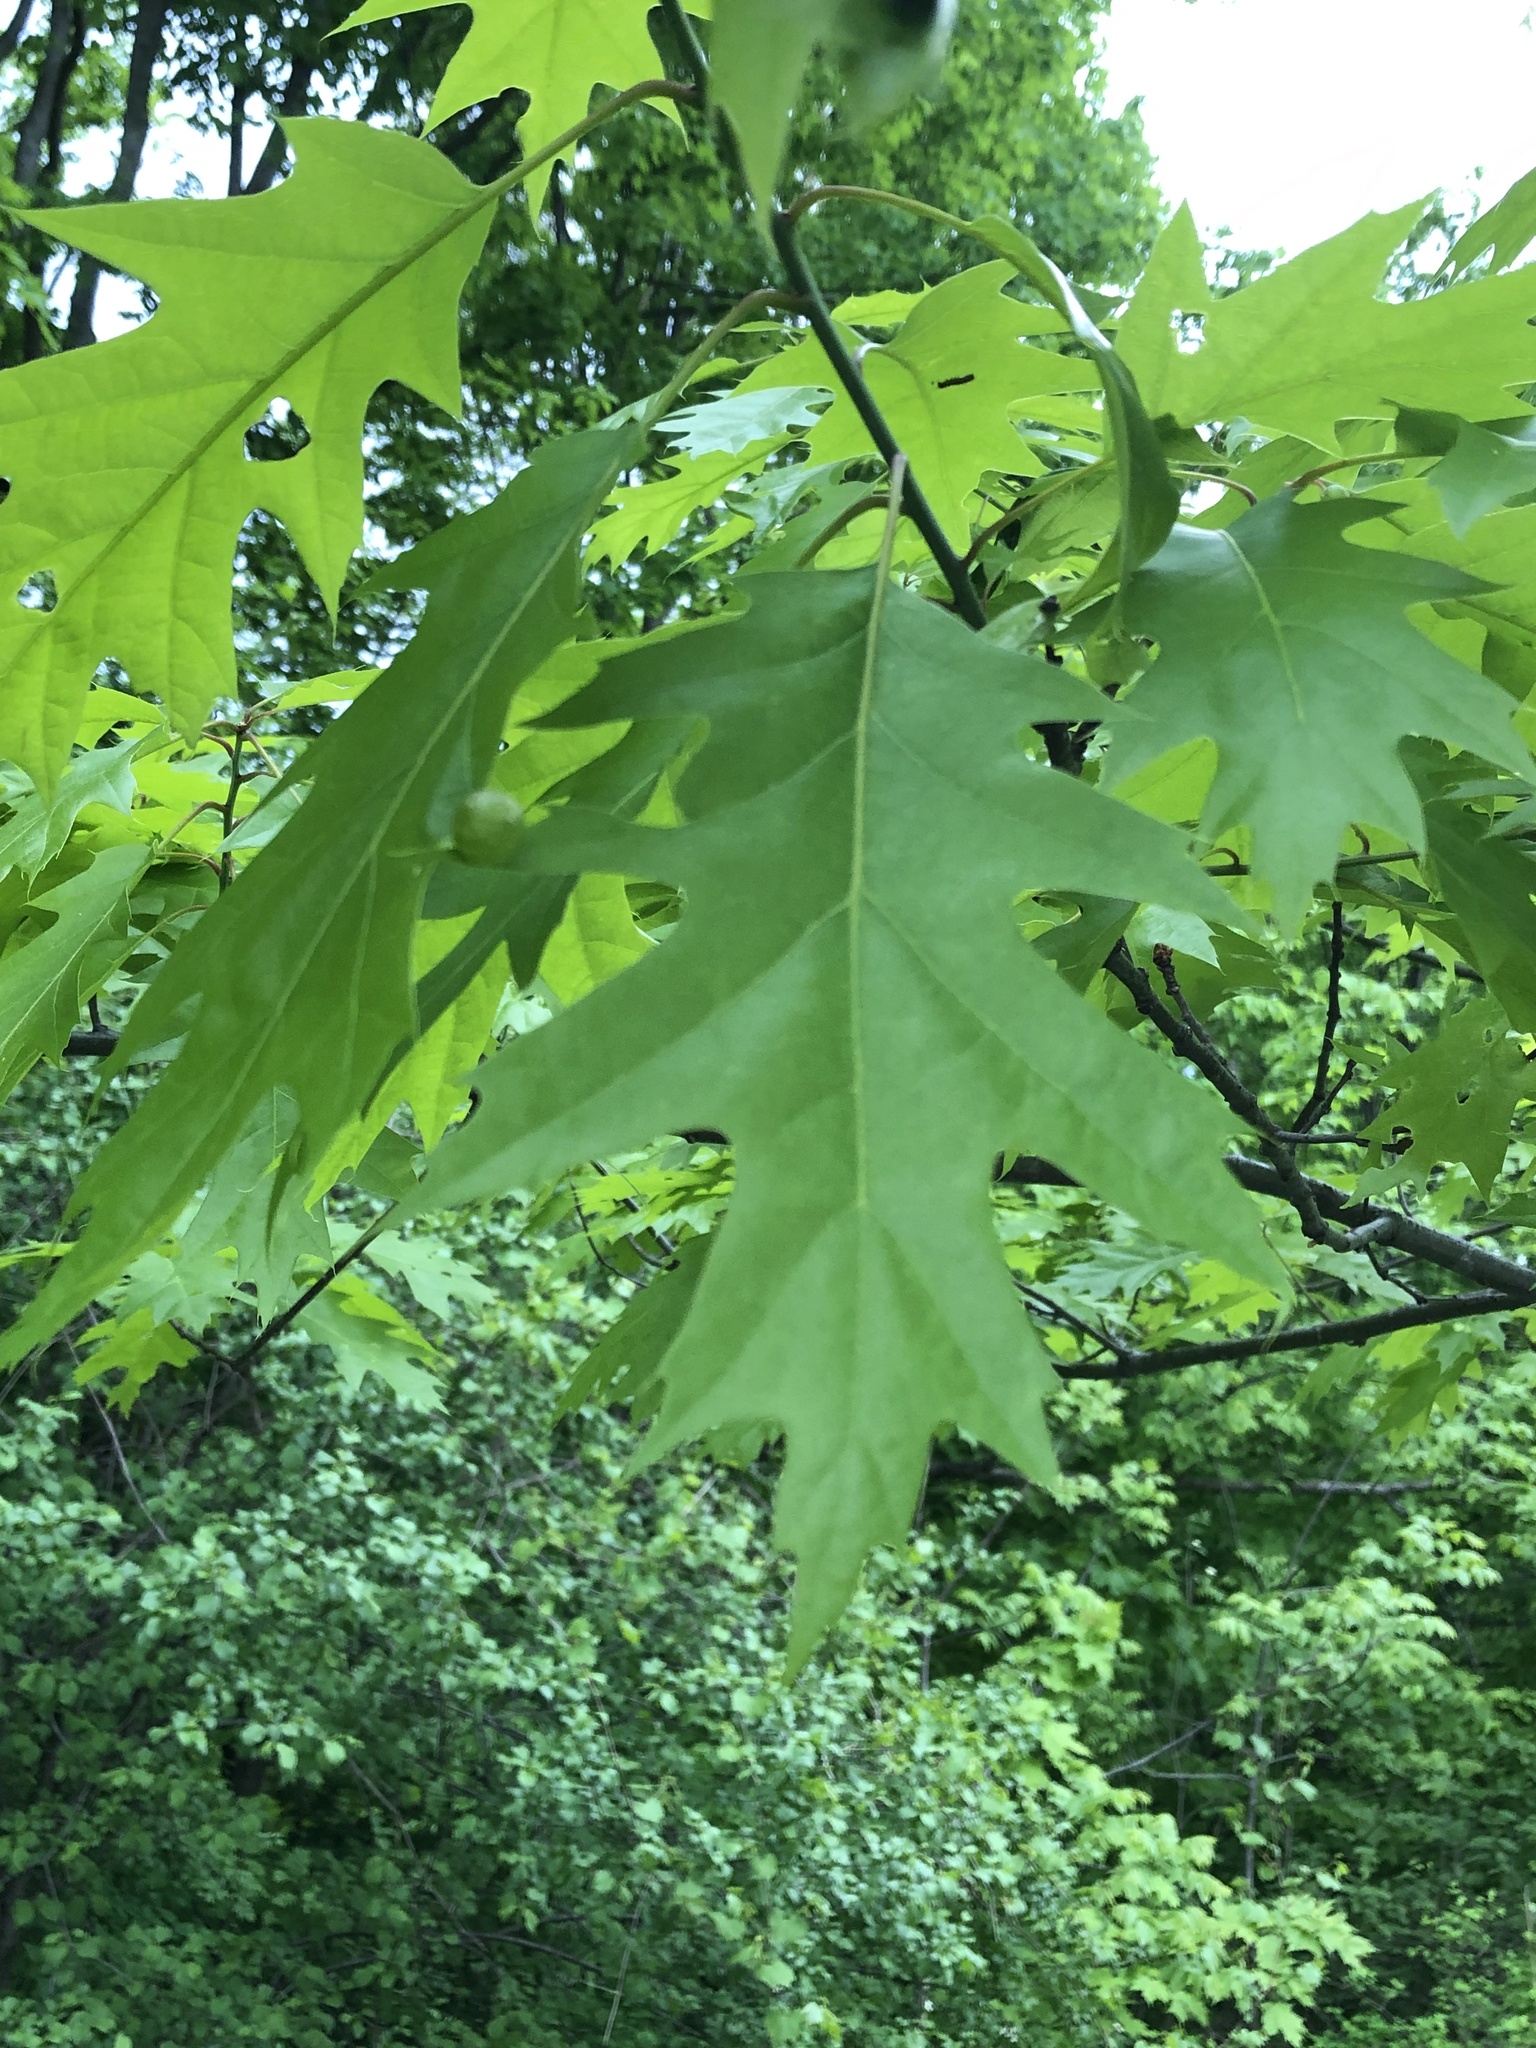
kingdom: Plantae
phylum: Tracheophyta
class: Magnoliopsida
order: Fagales
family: Fagaceae
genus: Quercus
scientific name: Quercus rubra
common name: Red oak
